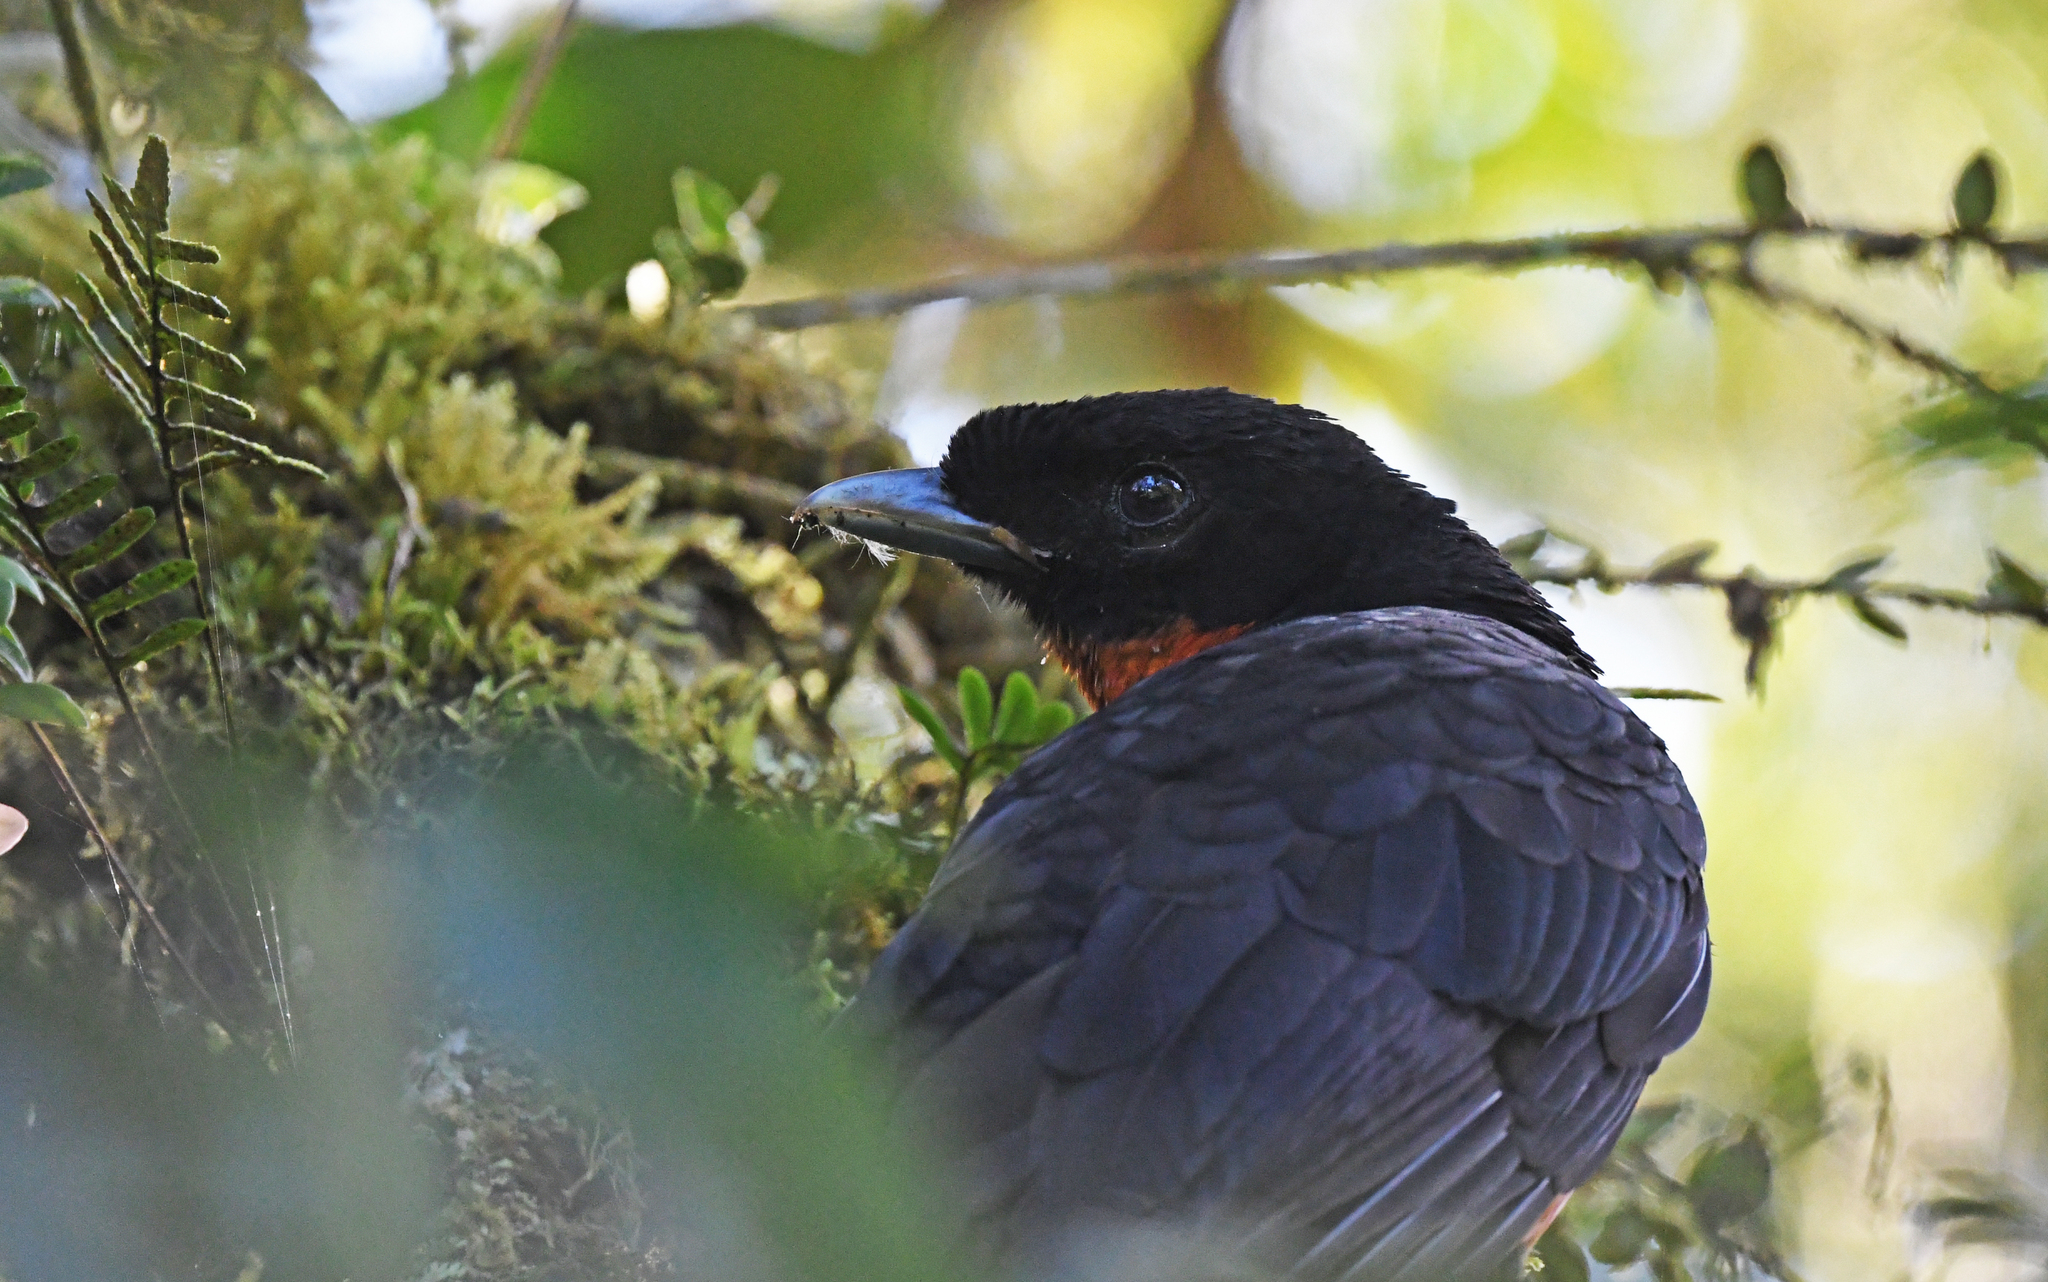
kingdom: Animalia
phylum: Chordata
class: Aves
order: Passeriformes
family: Cotingidae
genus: Pyroderus
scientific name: Pyroderus scutatus
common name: Red-ruffed fruitcrow
